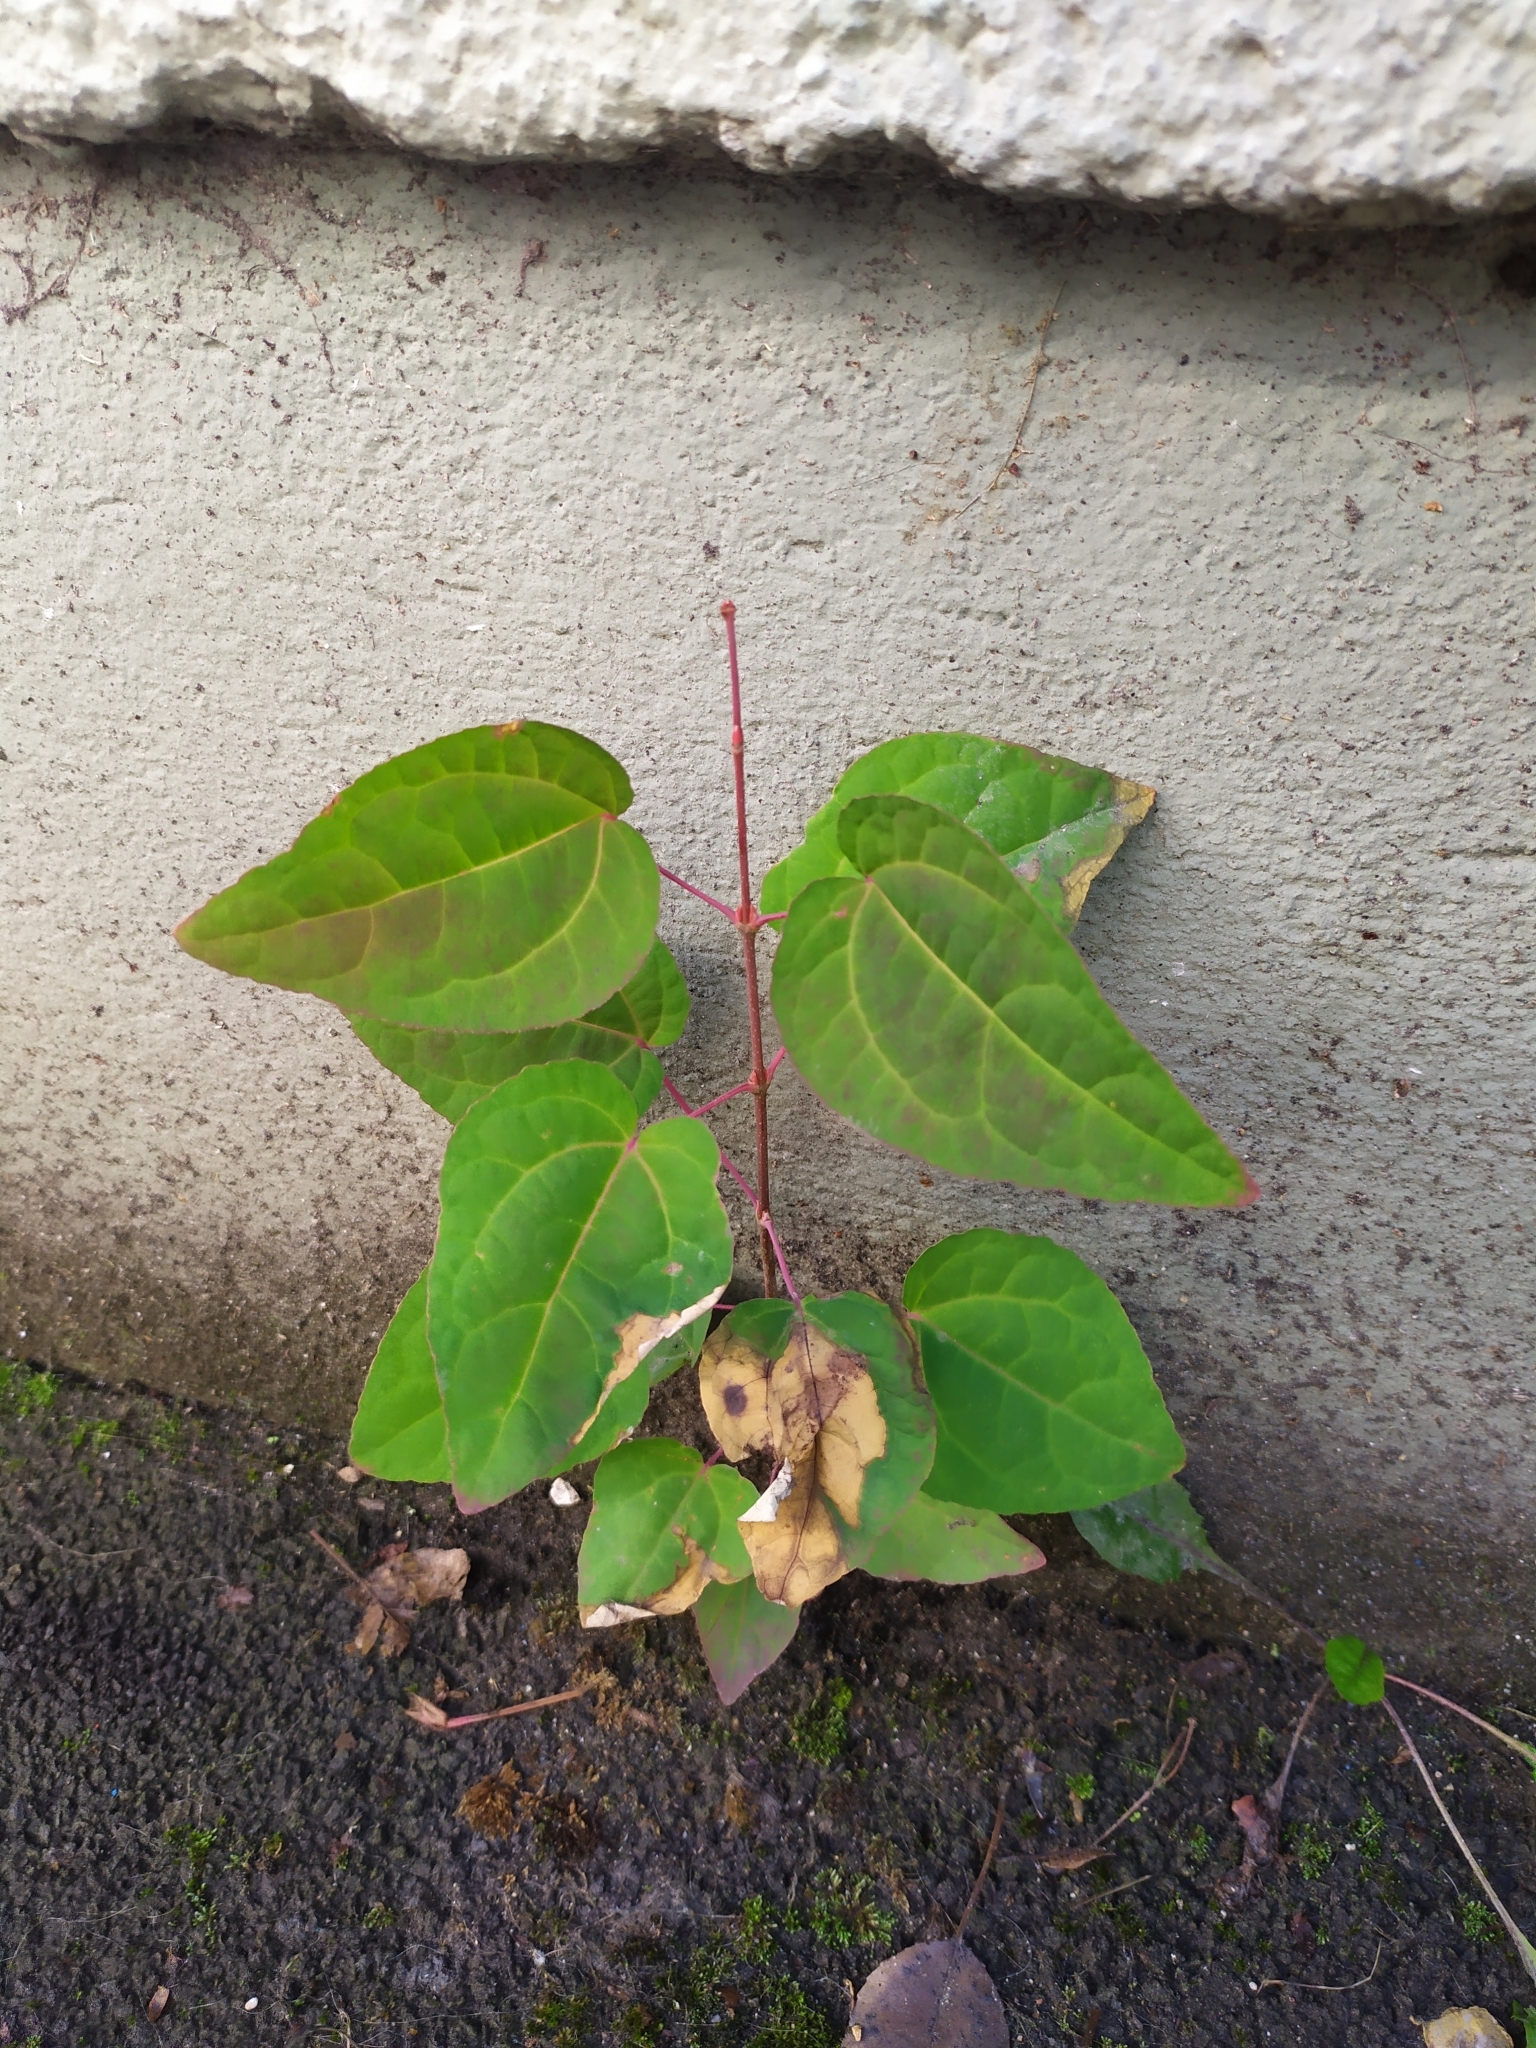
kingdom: Plantae
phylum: Tracheophyta
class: Magnoliopsida
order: Saxifragales
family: Cercidiphyllaceae
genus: Cercidiphyllum
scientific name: Cercidiphyllum japonicum
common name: Katsura tree
